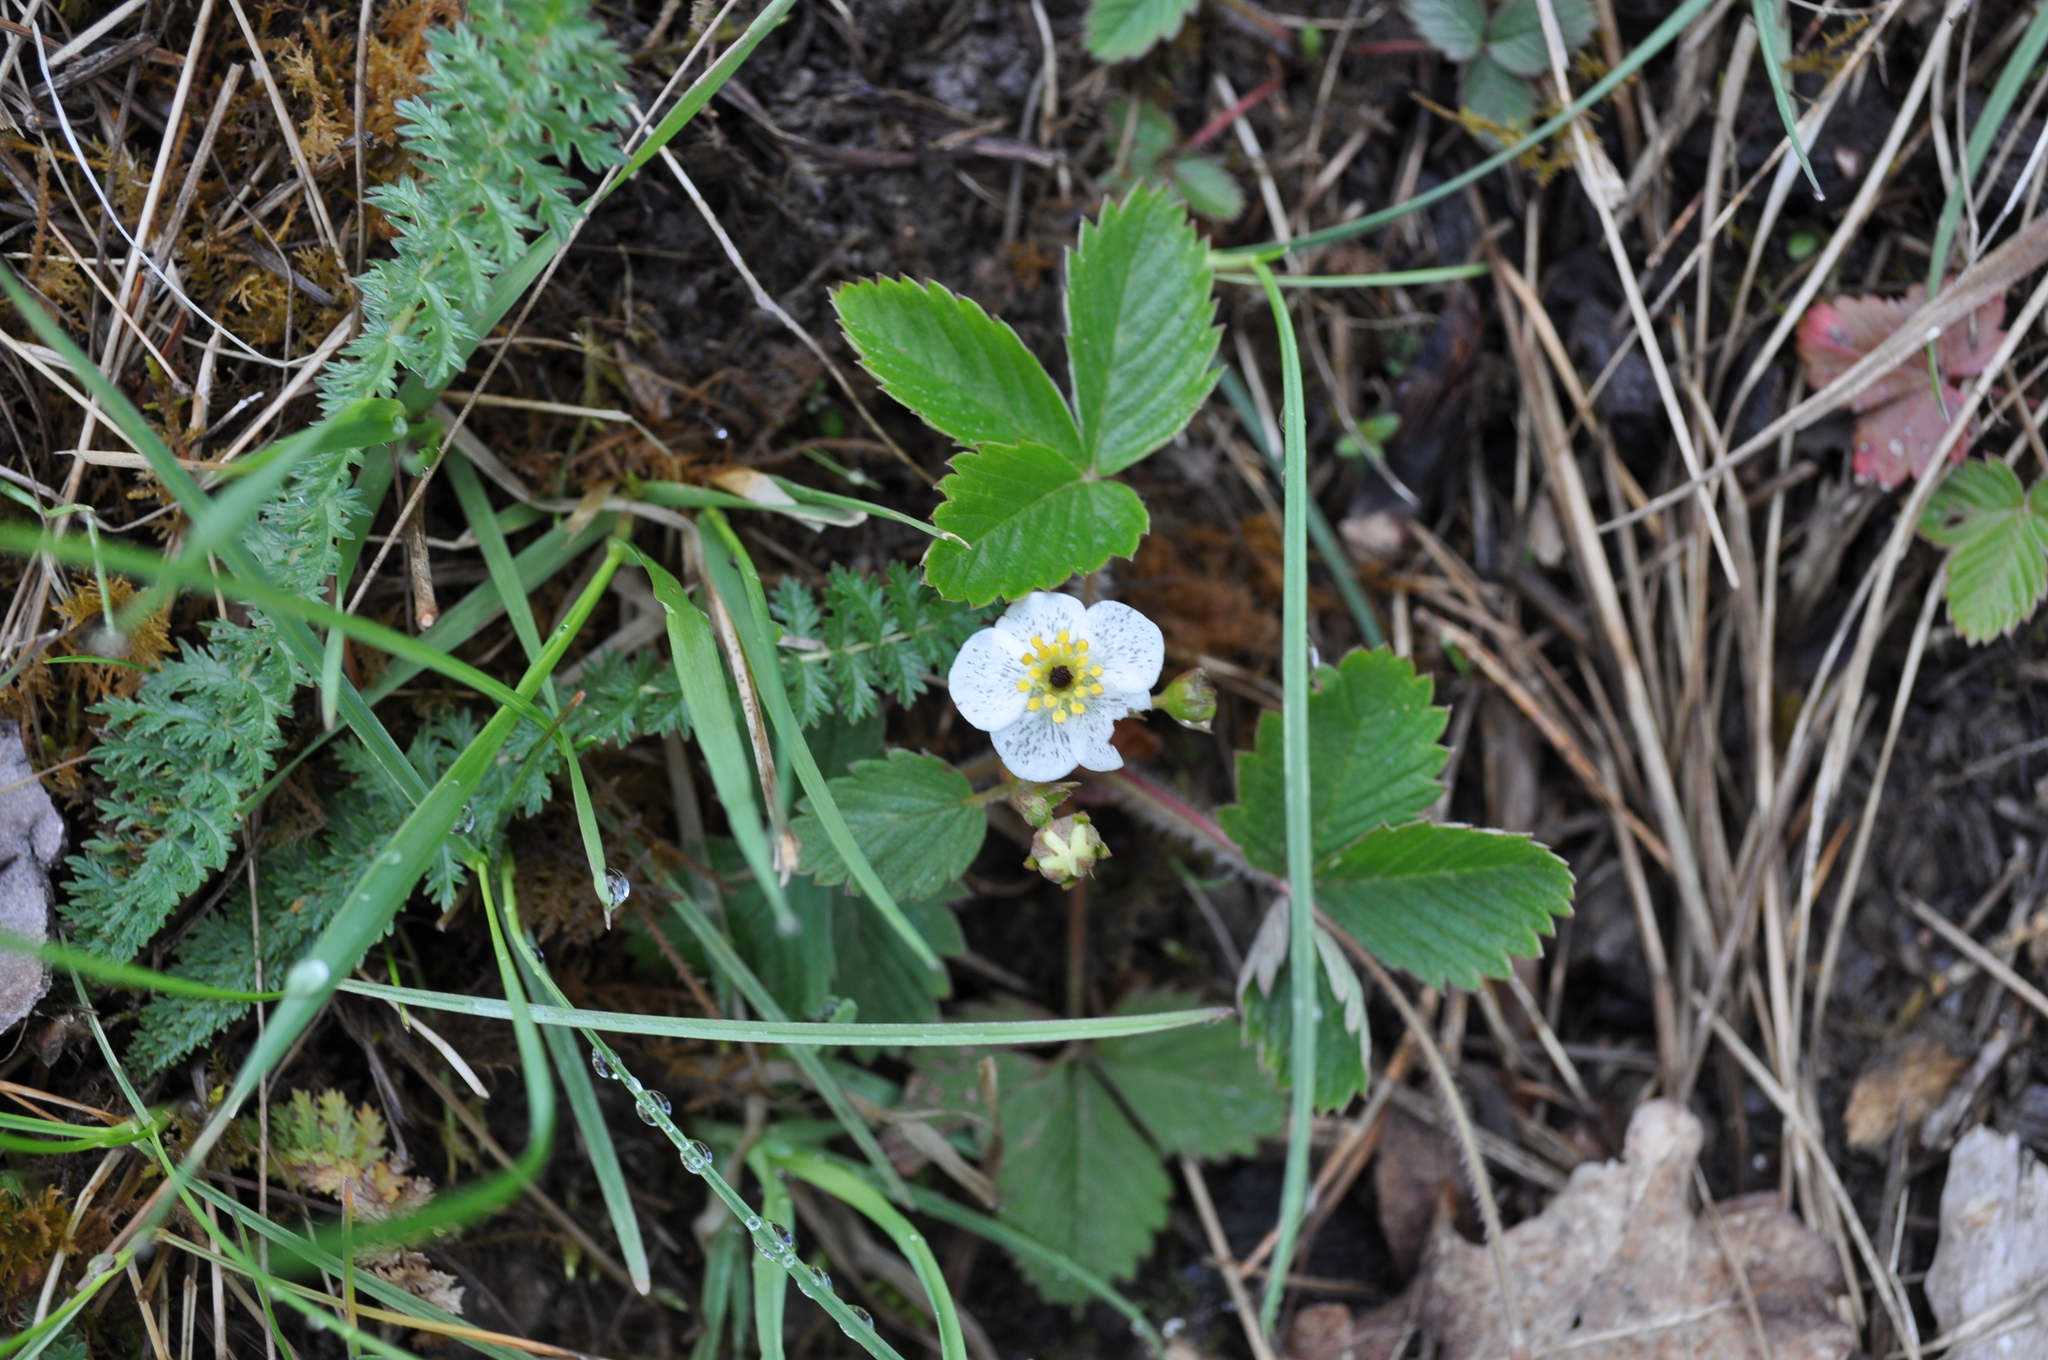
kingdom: Plantae
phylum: Tracheophyta
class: Magnoliopsida
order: Rosales
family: Rosaceae
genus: Fragaria
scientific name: Fragaria vesca
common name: Wild strawberry
